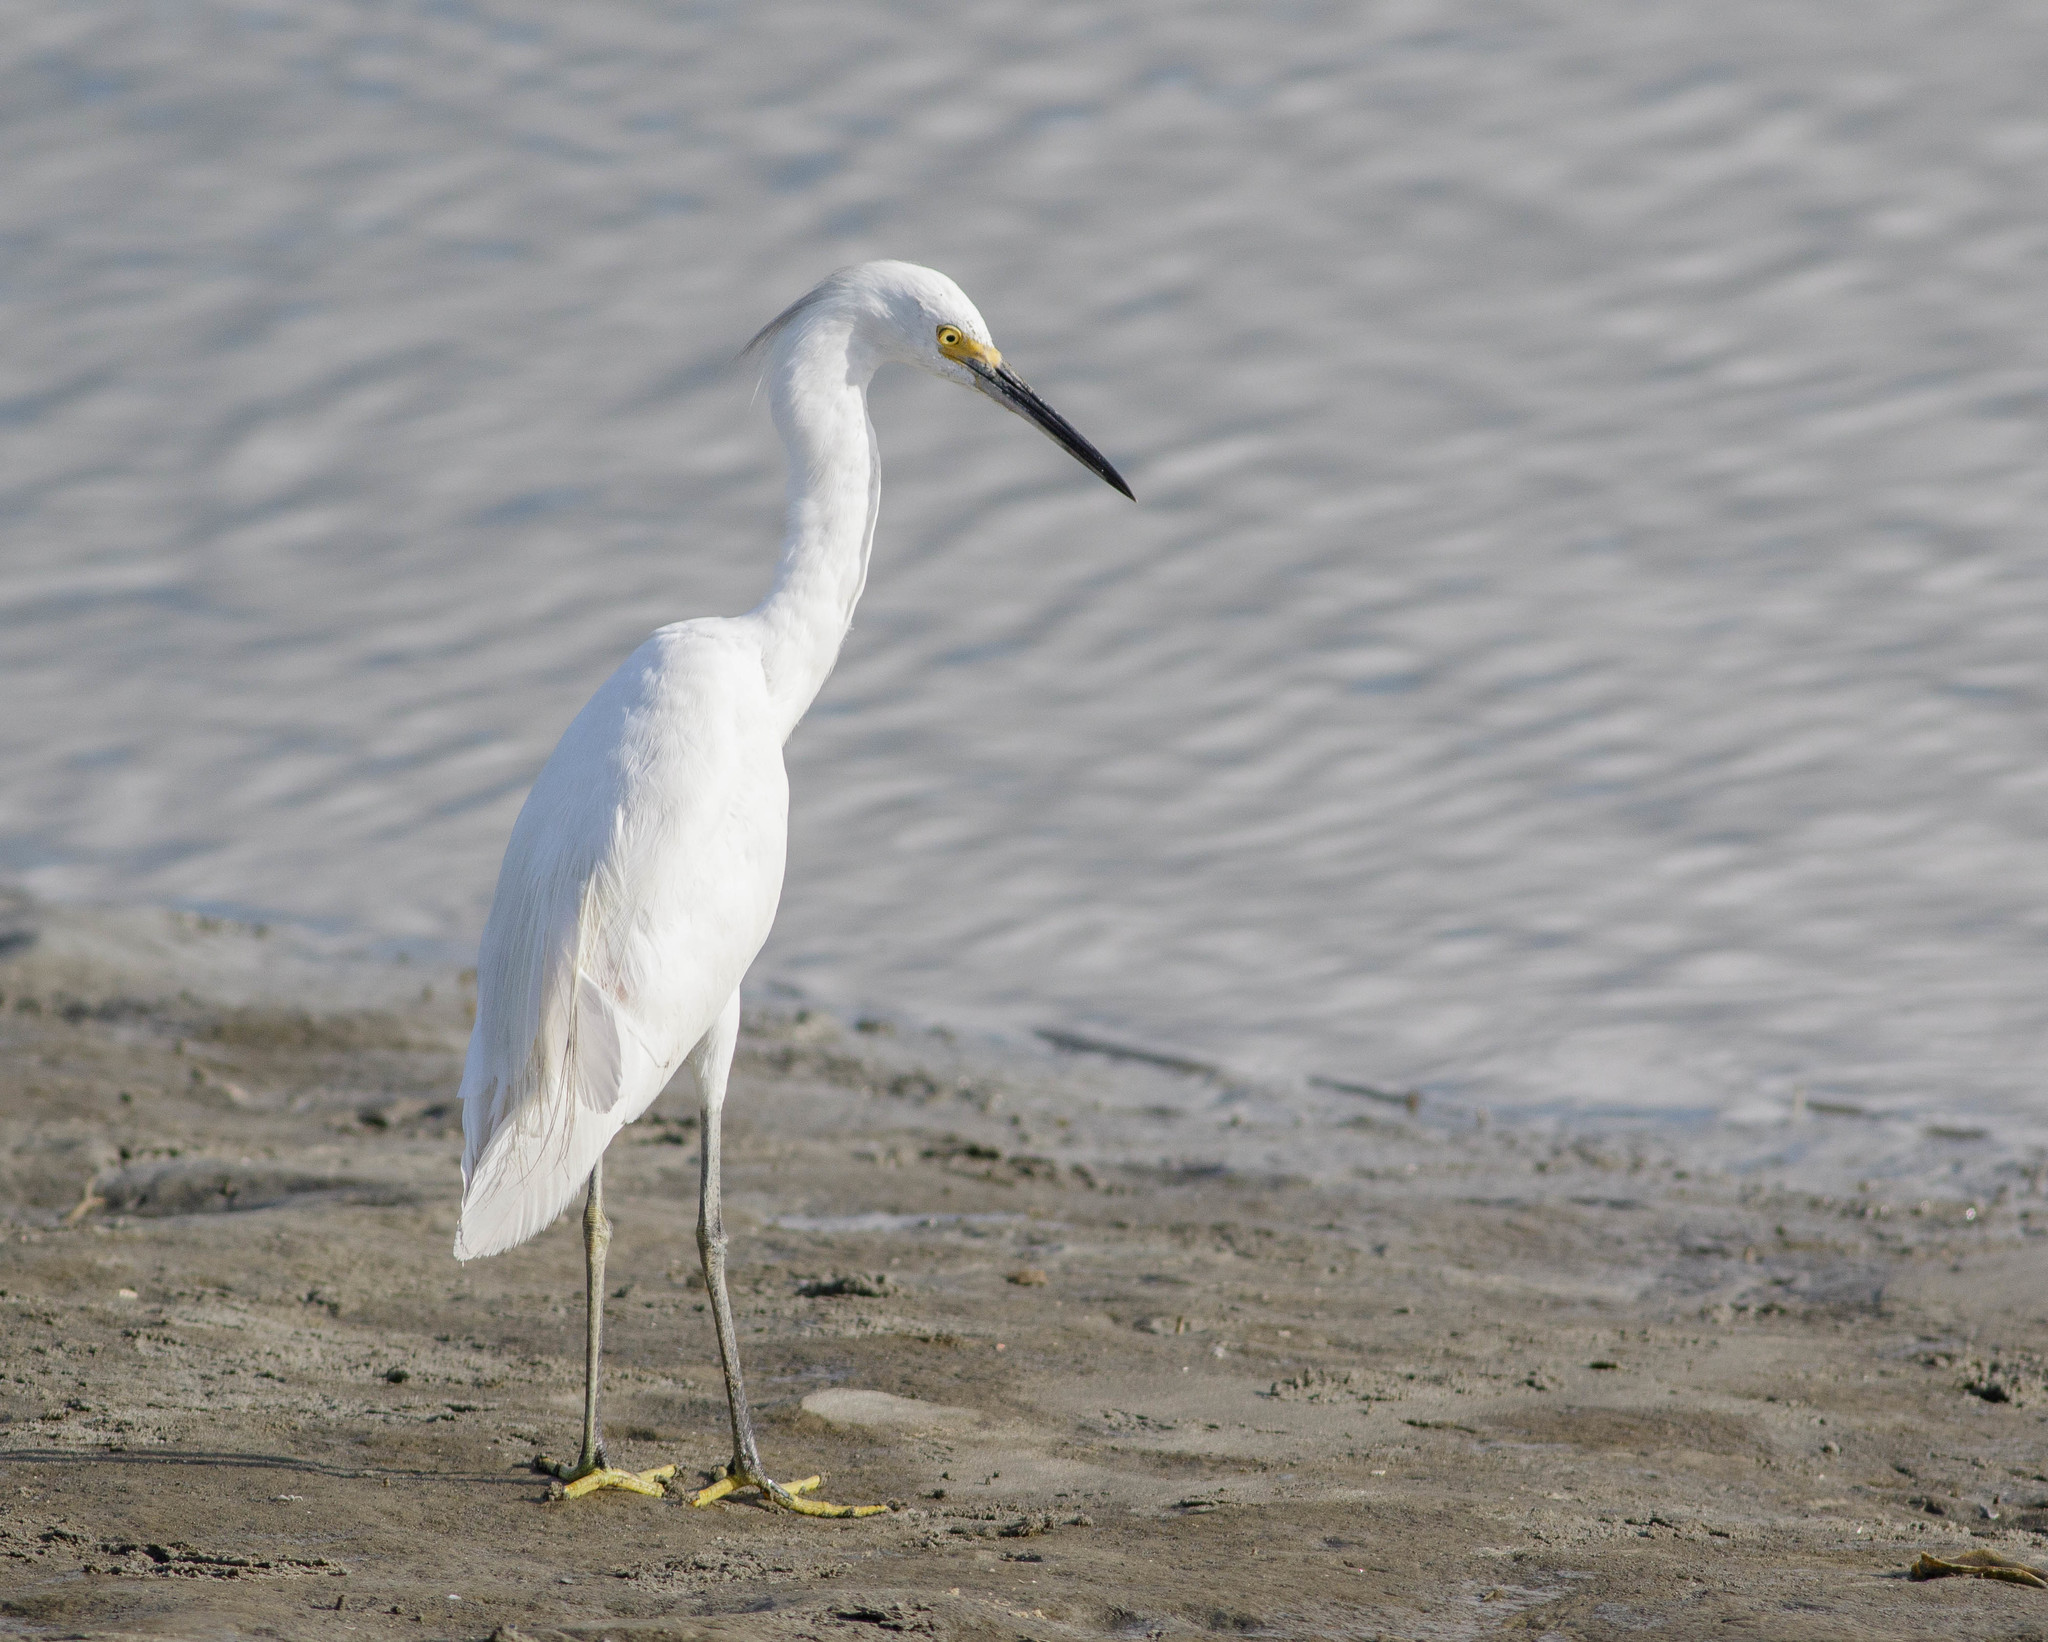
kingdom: Animalia
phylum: Chordata
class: Aves
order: Pelecaniformes
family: Ardeidae
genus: Egretta
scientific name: Egretta thula
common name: Snowy egret
